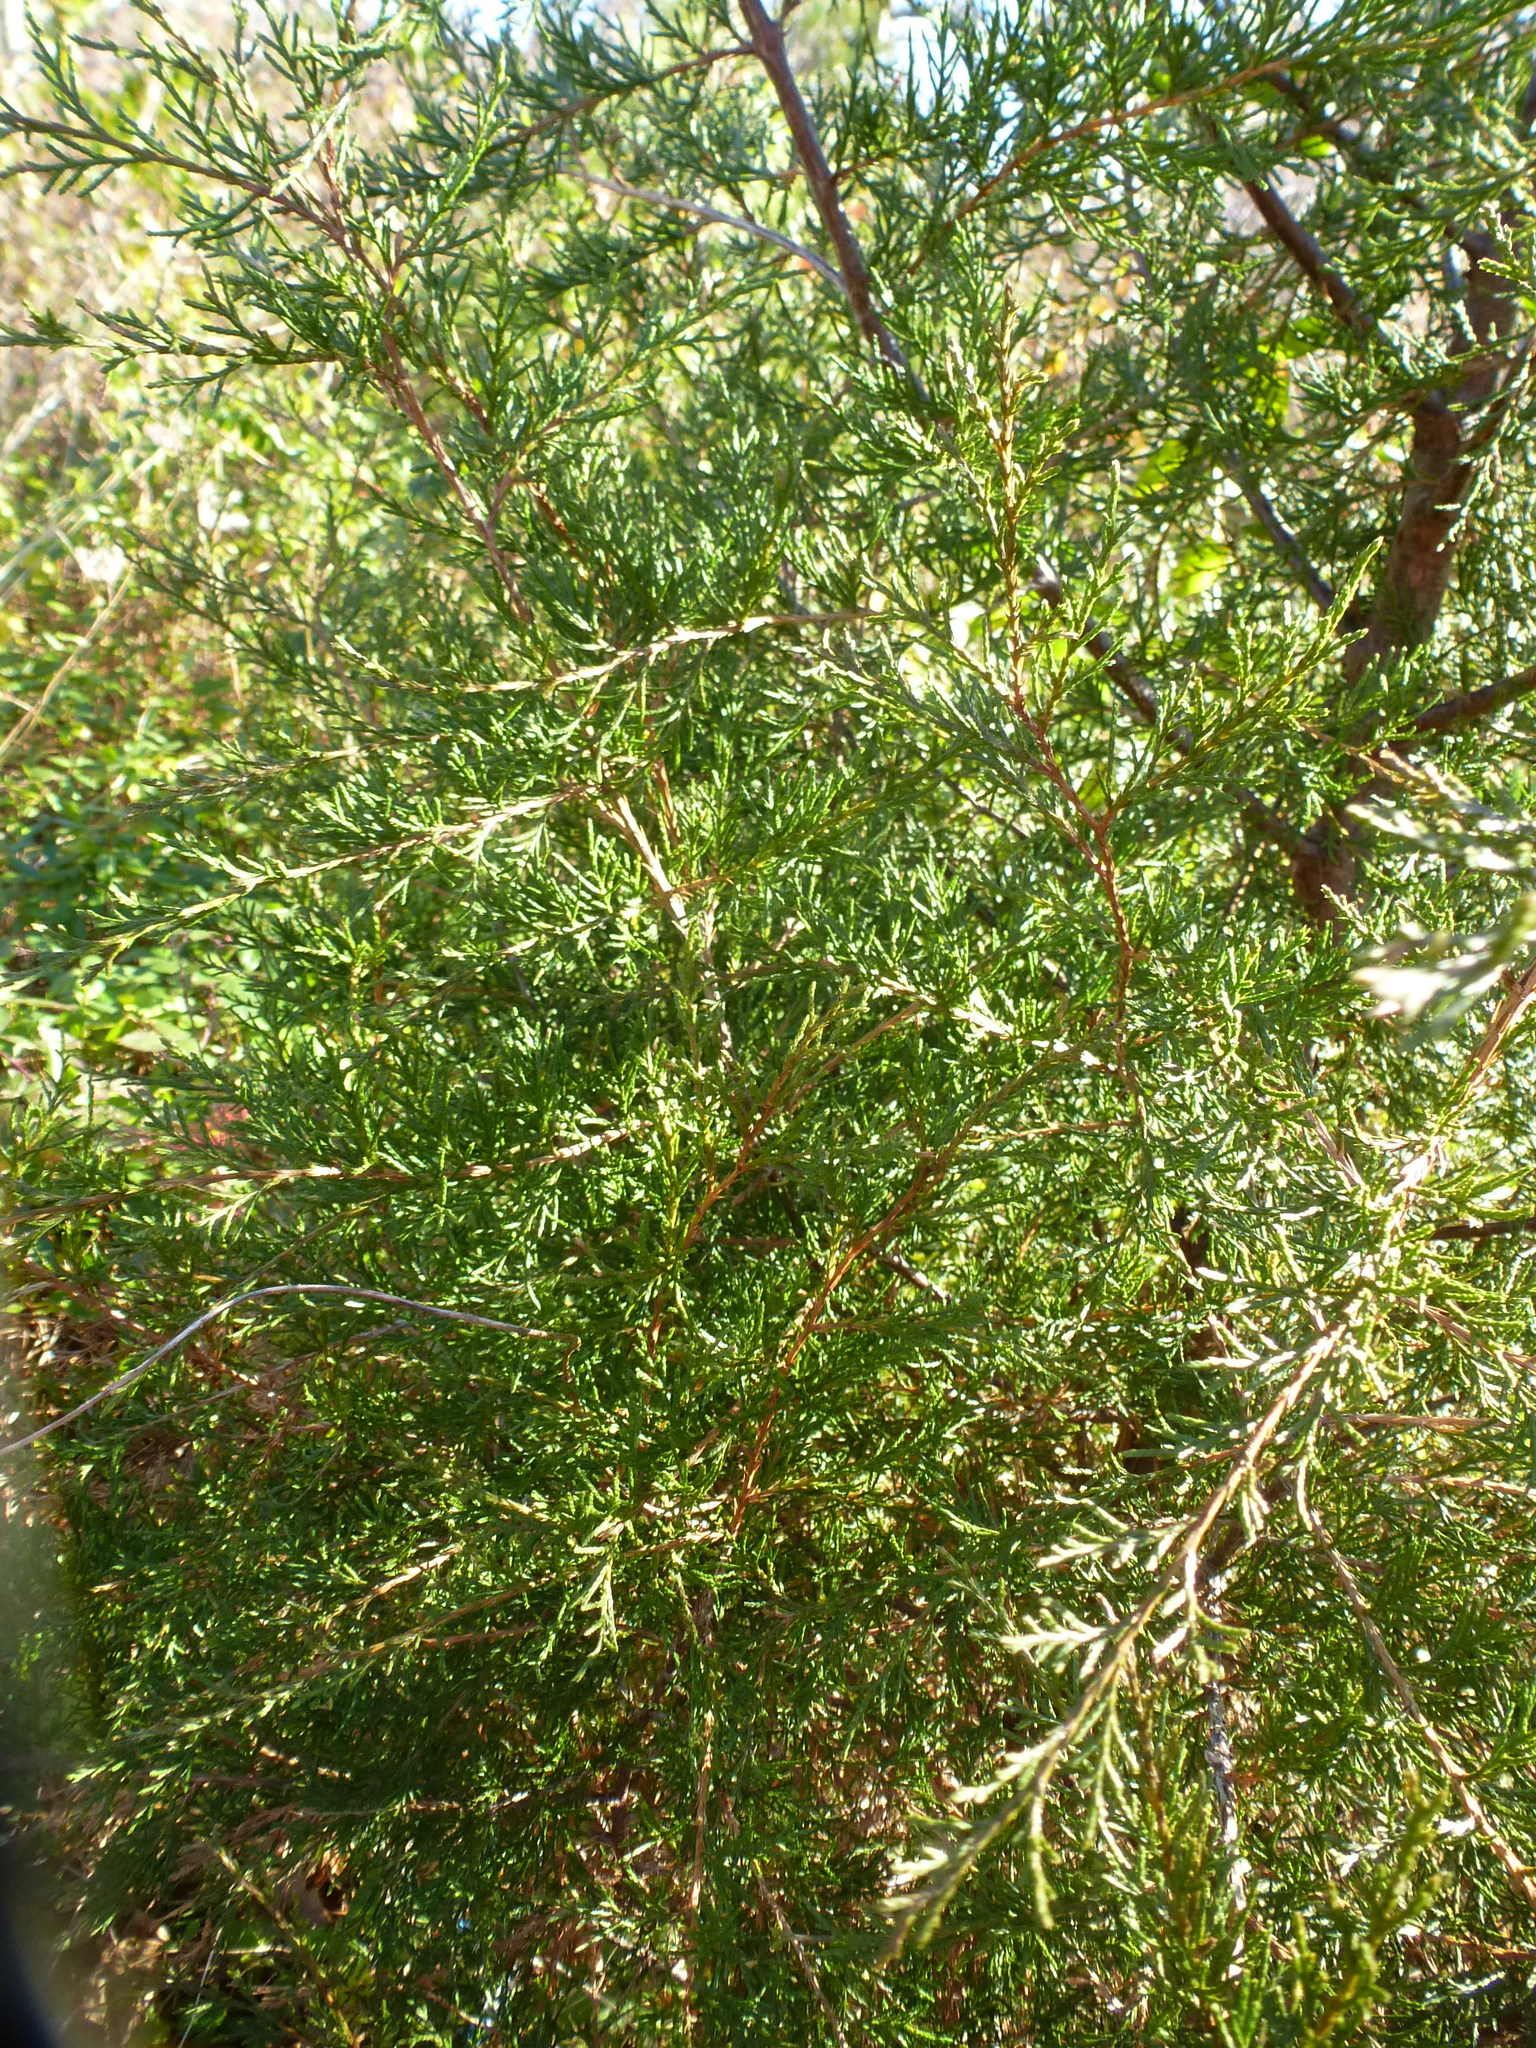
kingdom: Plantae
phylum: Tracheophyta
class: Pinopsida
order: Pinales
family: Cupressaceae
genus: Juniperus
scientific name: Juniperus virginiana
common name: Red juniper
